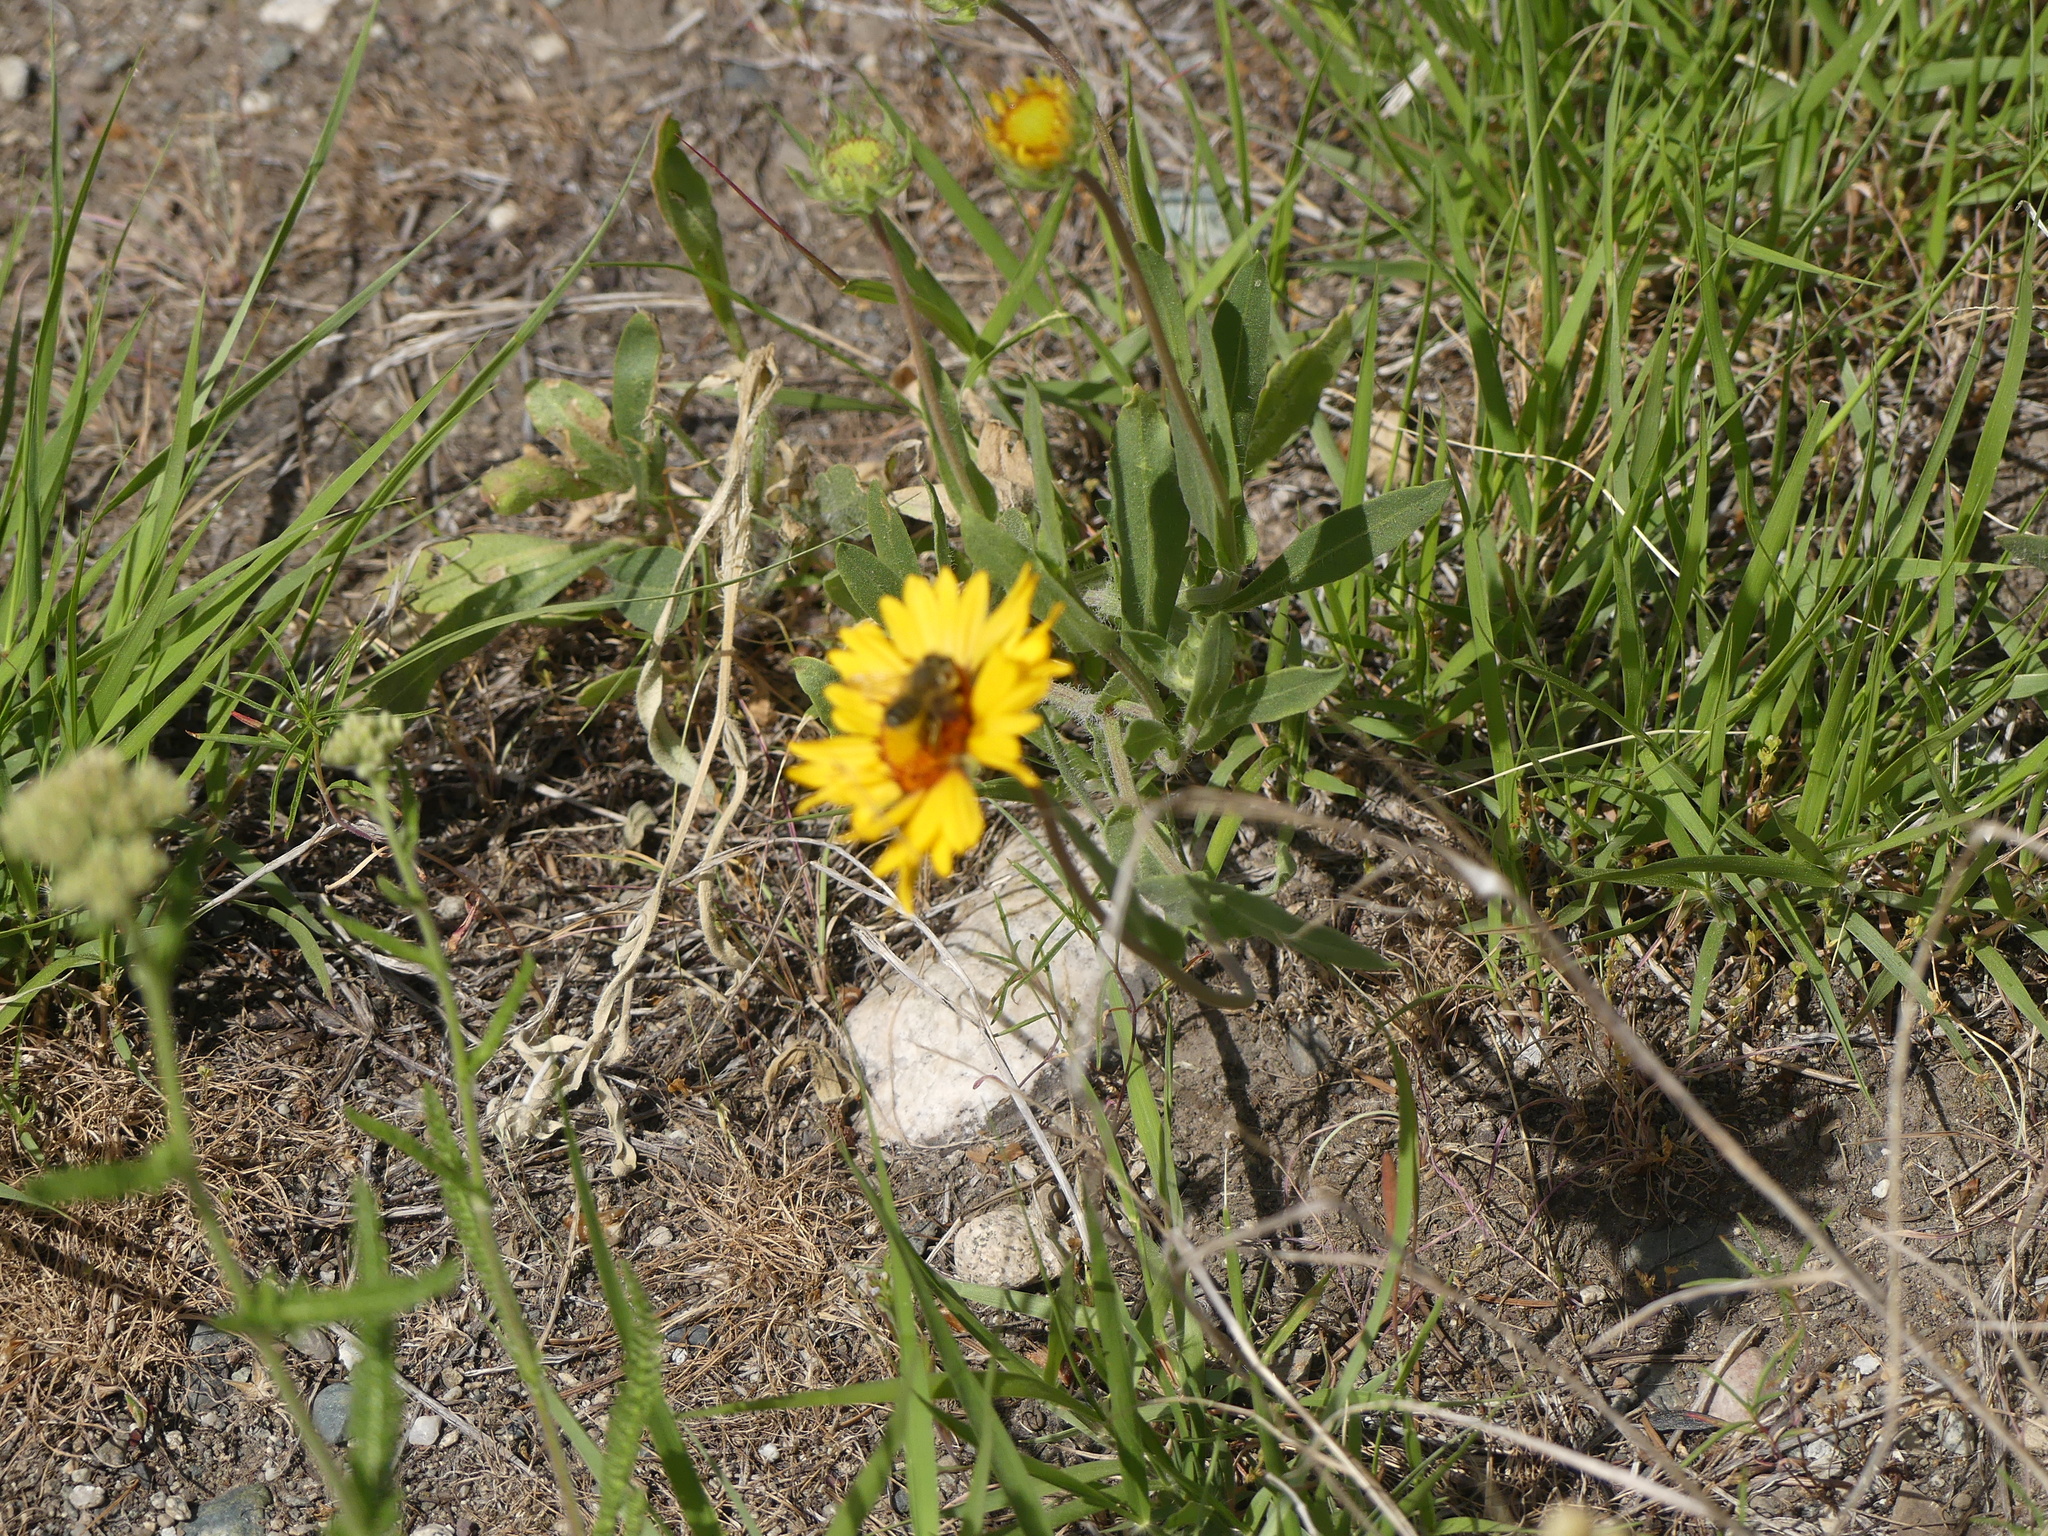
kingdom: Animalia
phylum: Arthropoda
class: Insecta
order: Hymenoptera
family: Megachilidae
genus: Megachile
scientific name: Megachile
